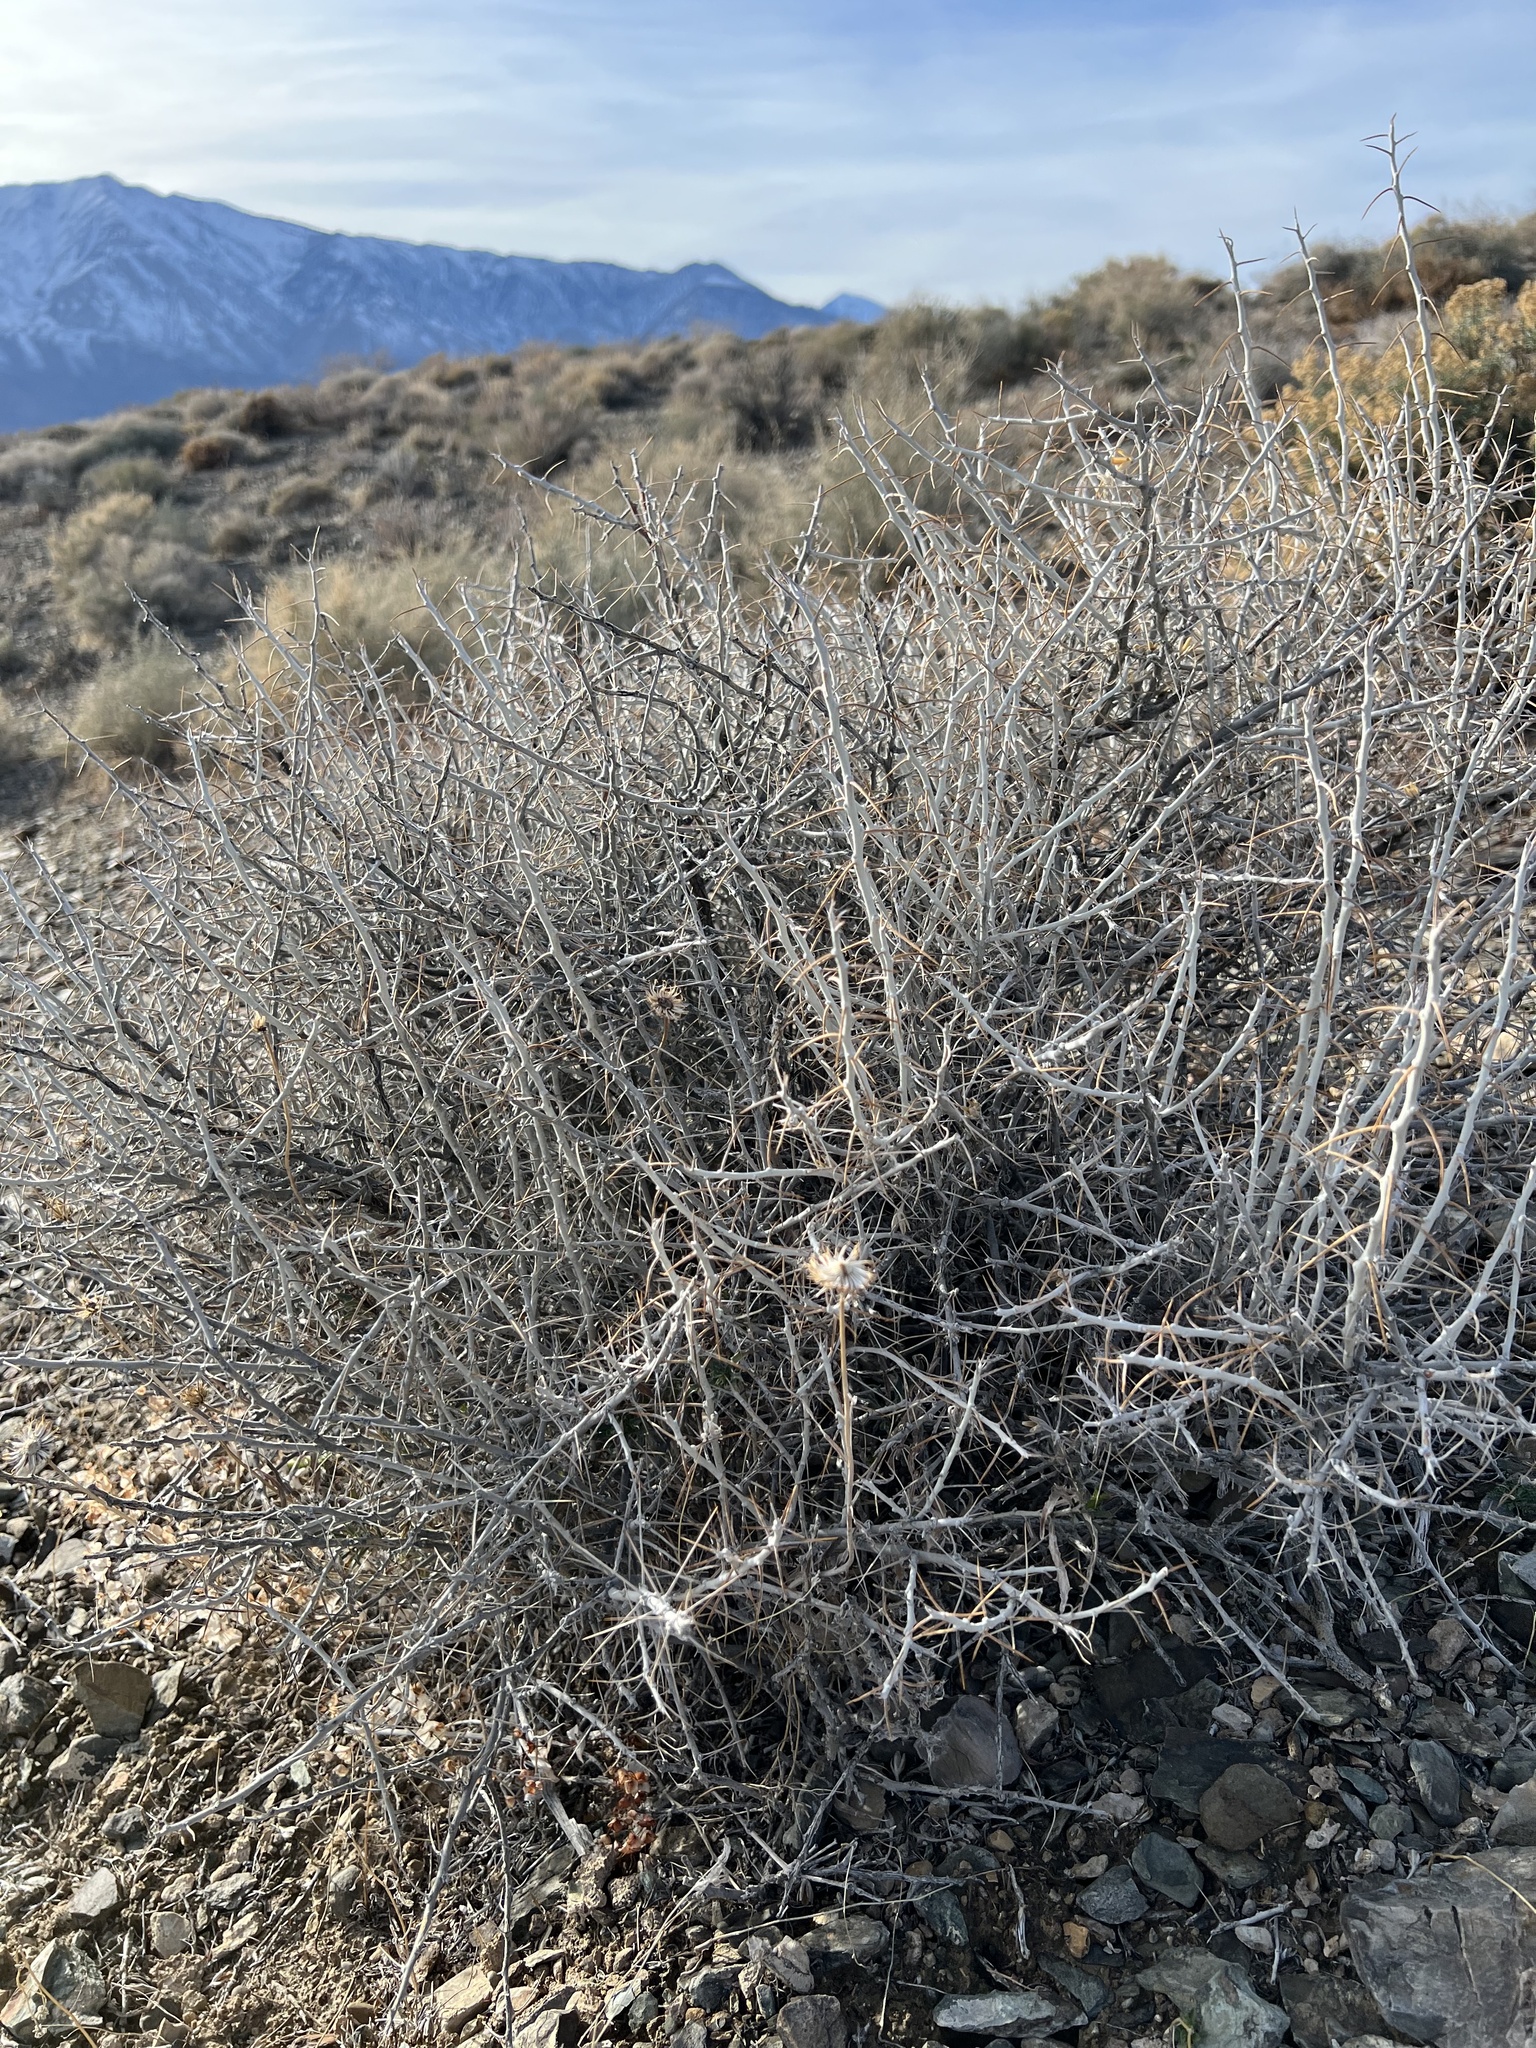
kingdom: Plantae
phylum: Tracheophyta
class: Magnoliopsida
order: Asterales
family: Asteraceae
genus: Tetradymia
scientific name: Tetradymia axillaris
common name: Long-spine horsebrush
